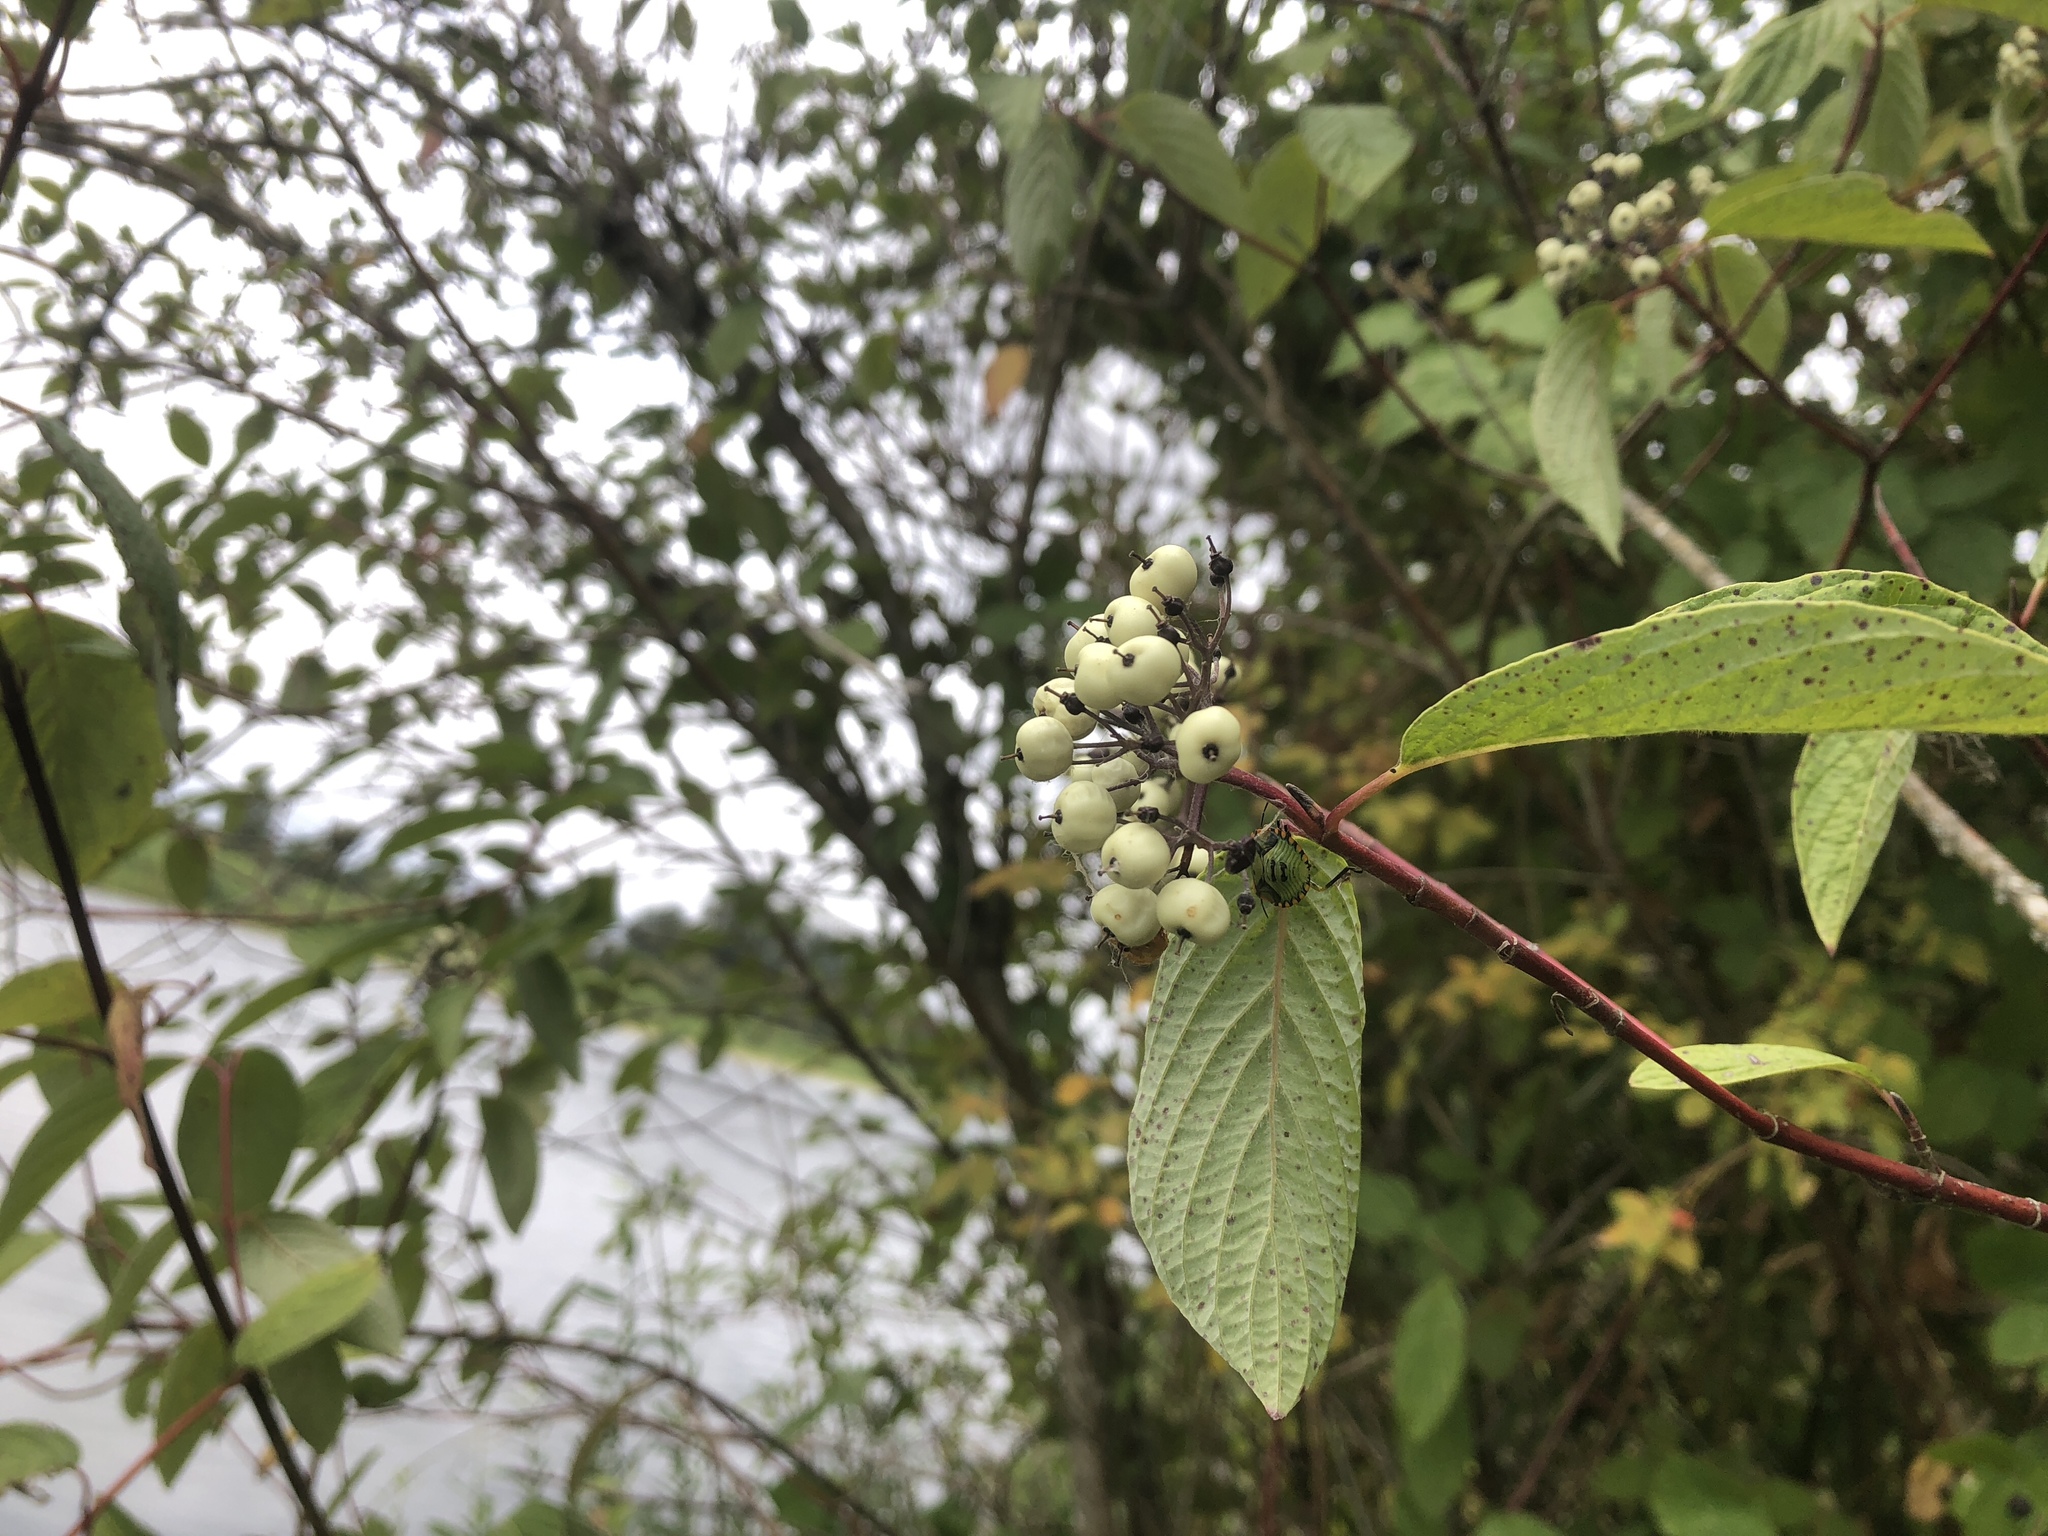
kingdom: Plantae
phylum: Tracheophyta
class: Magnoliopsida
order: Cornales
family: Cornaceae
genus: Cornus
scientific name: Cornus torreyi
